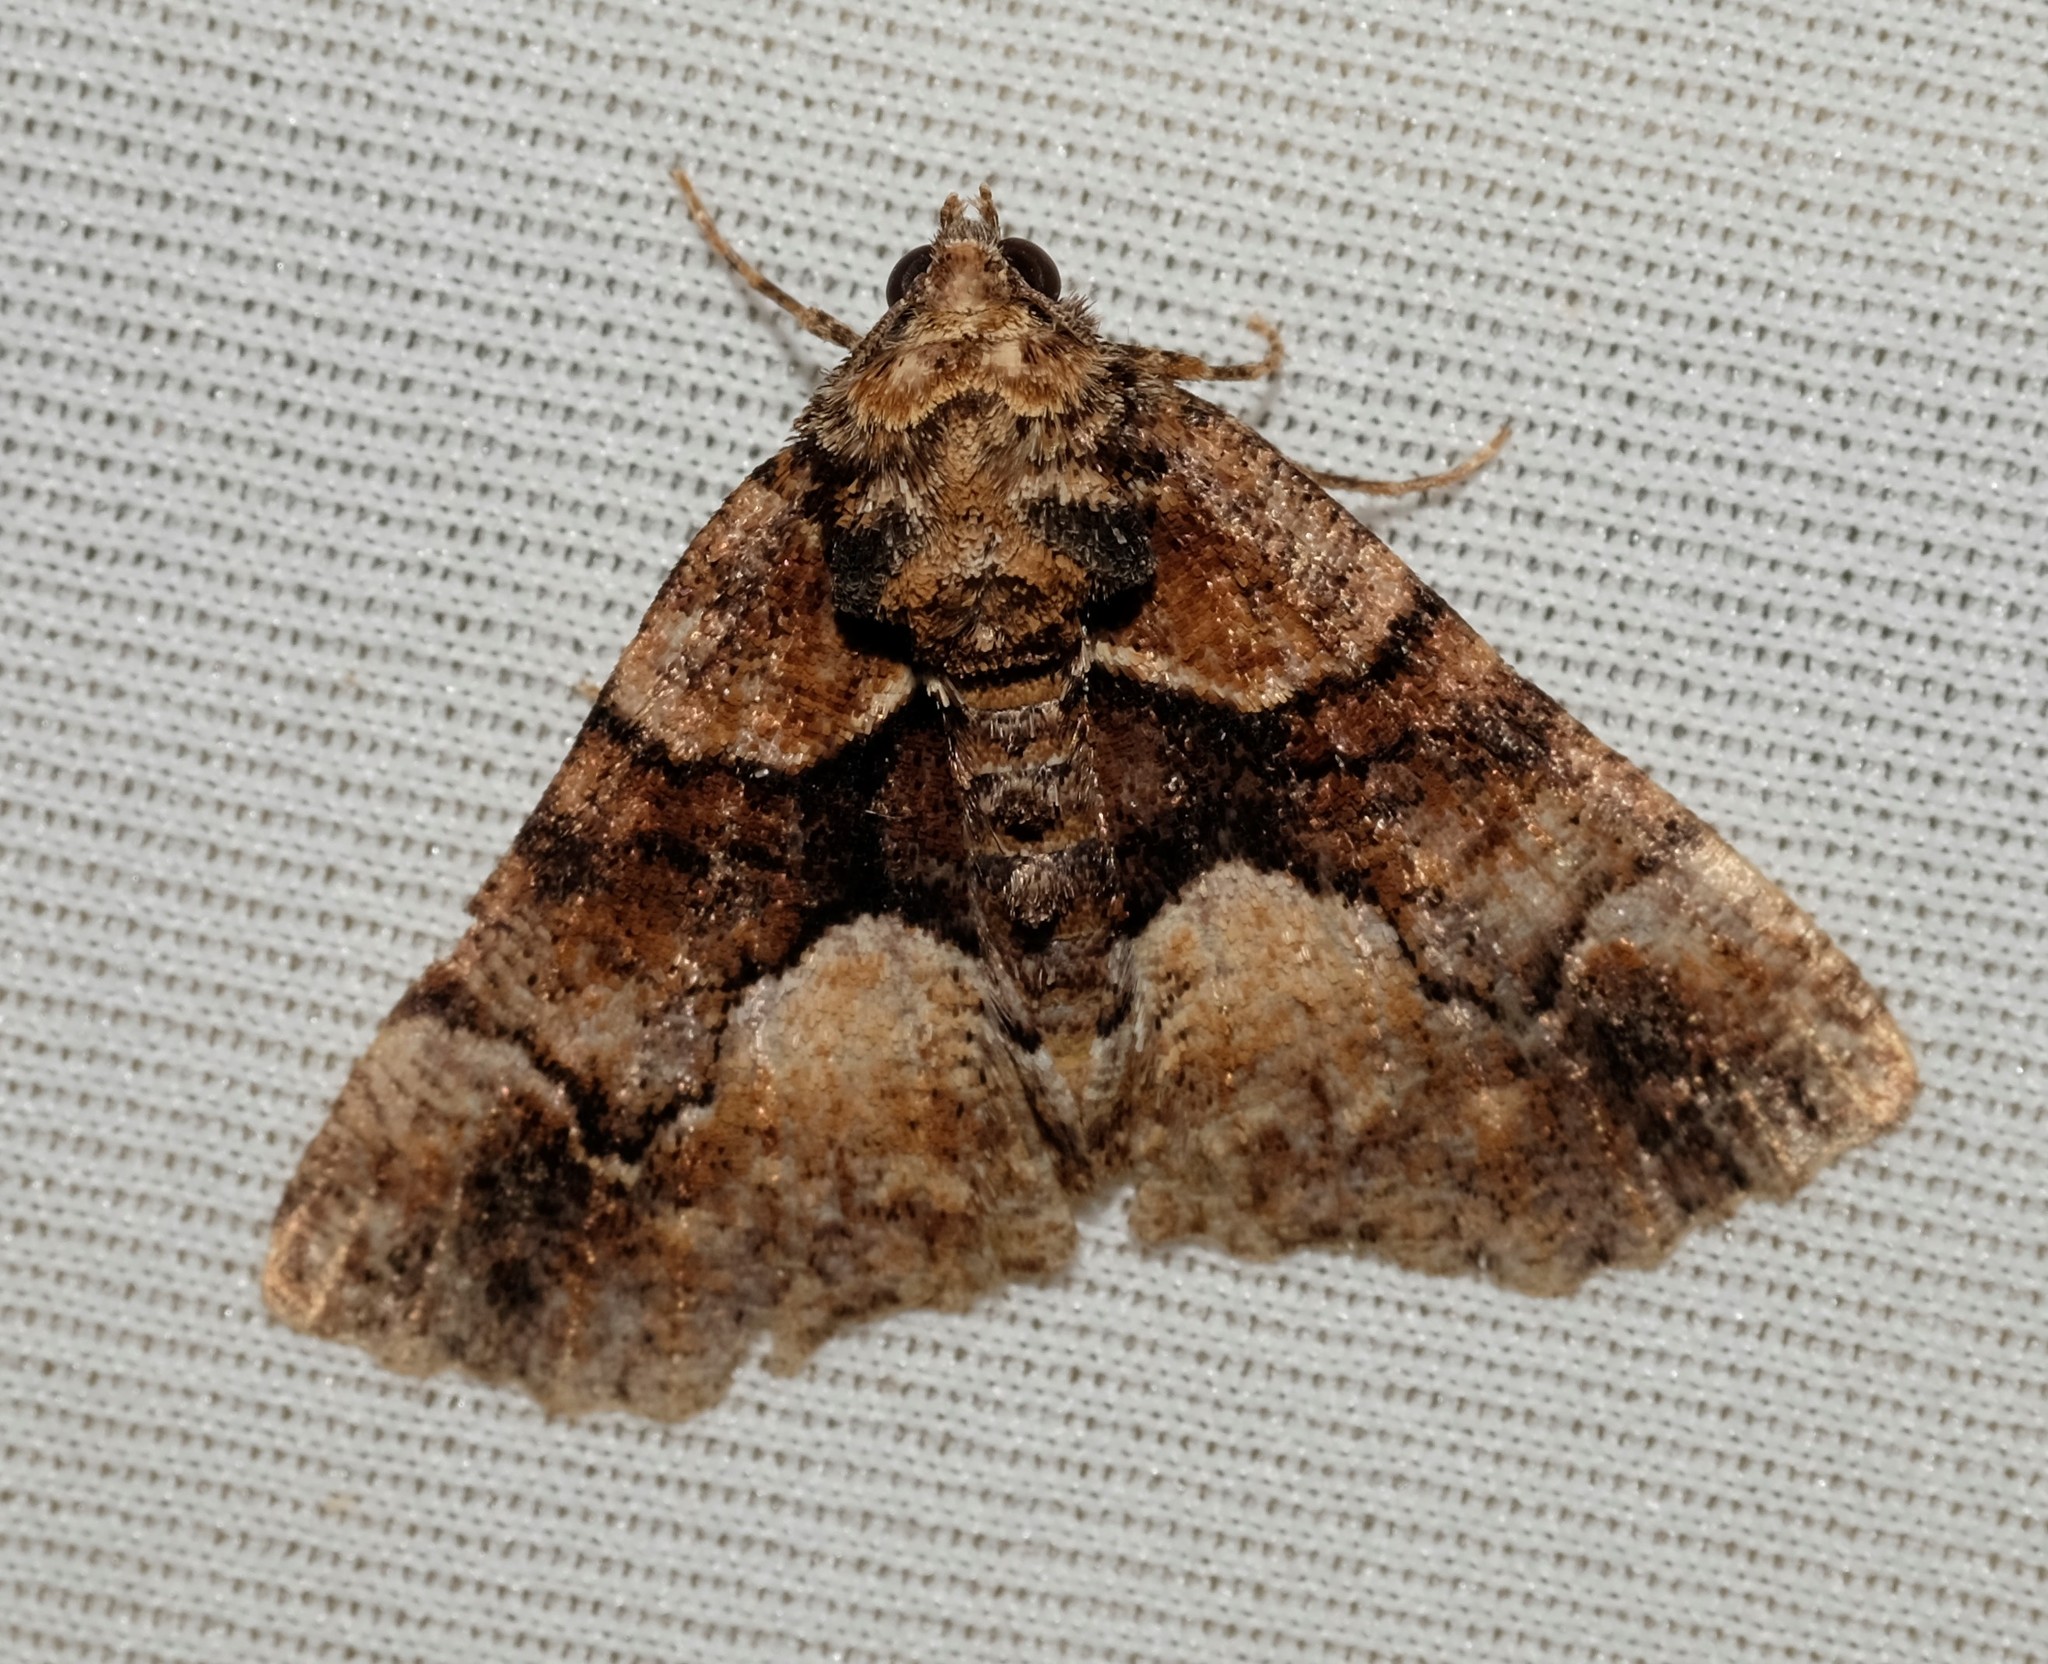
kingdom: Animalia
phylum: Arthropoda
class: Insecta
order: Lepidoptera
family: Geometridae
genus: Gastrina
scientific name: Gastrina cristaria
